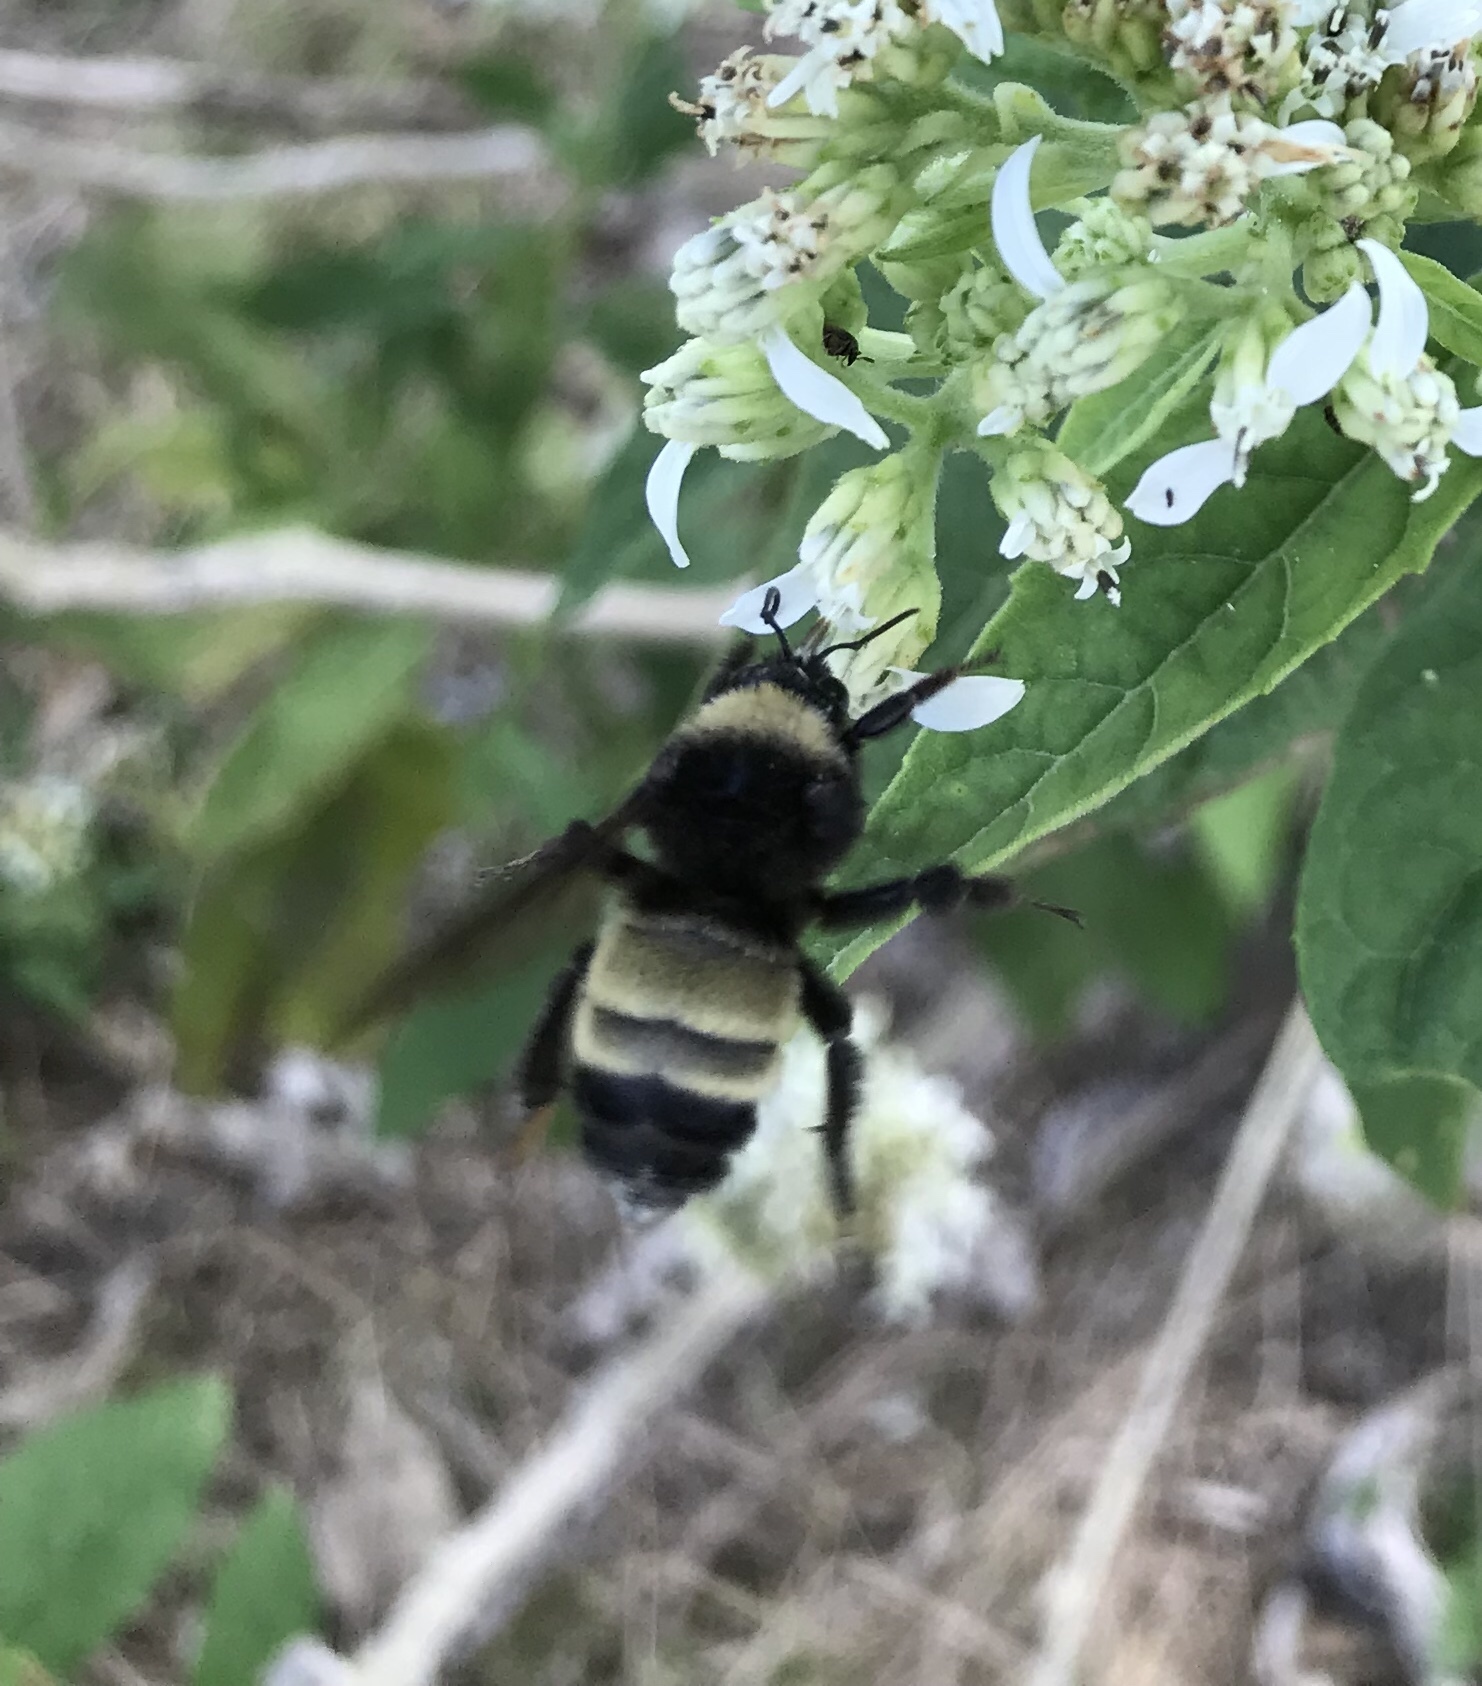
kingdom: Animalia
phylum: Arthropoda
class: Insecta
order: Hymenoptera
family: Apidae
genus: Bombus
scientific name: Bombus pensylvanicus
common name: Bumble bee
